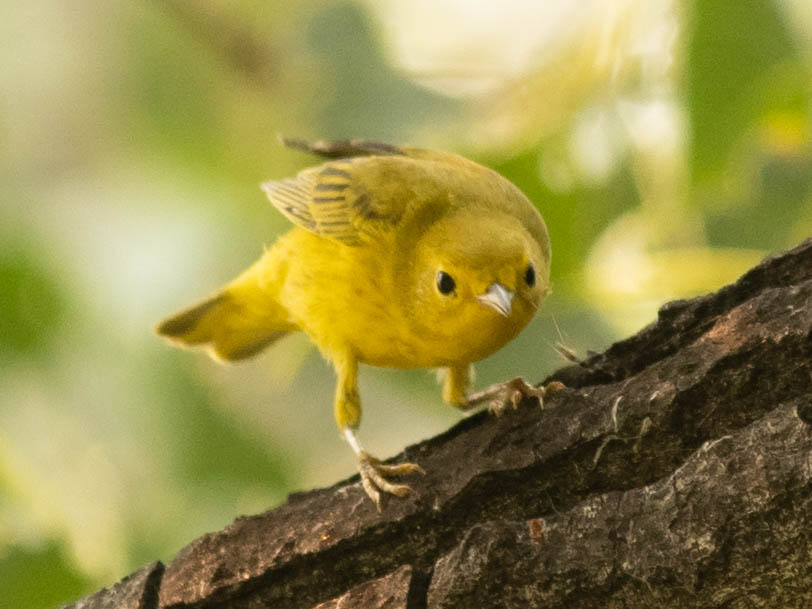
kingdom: Animalia
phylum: Chordata
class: Aves
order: Passeriformes
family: Parulidae
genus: Setophaga
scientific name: Setophaga petechia
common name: Yellow warbler
